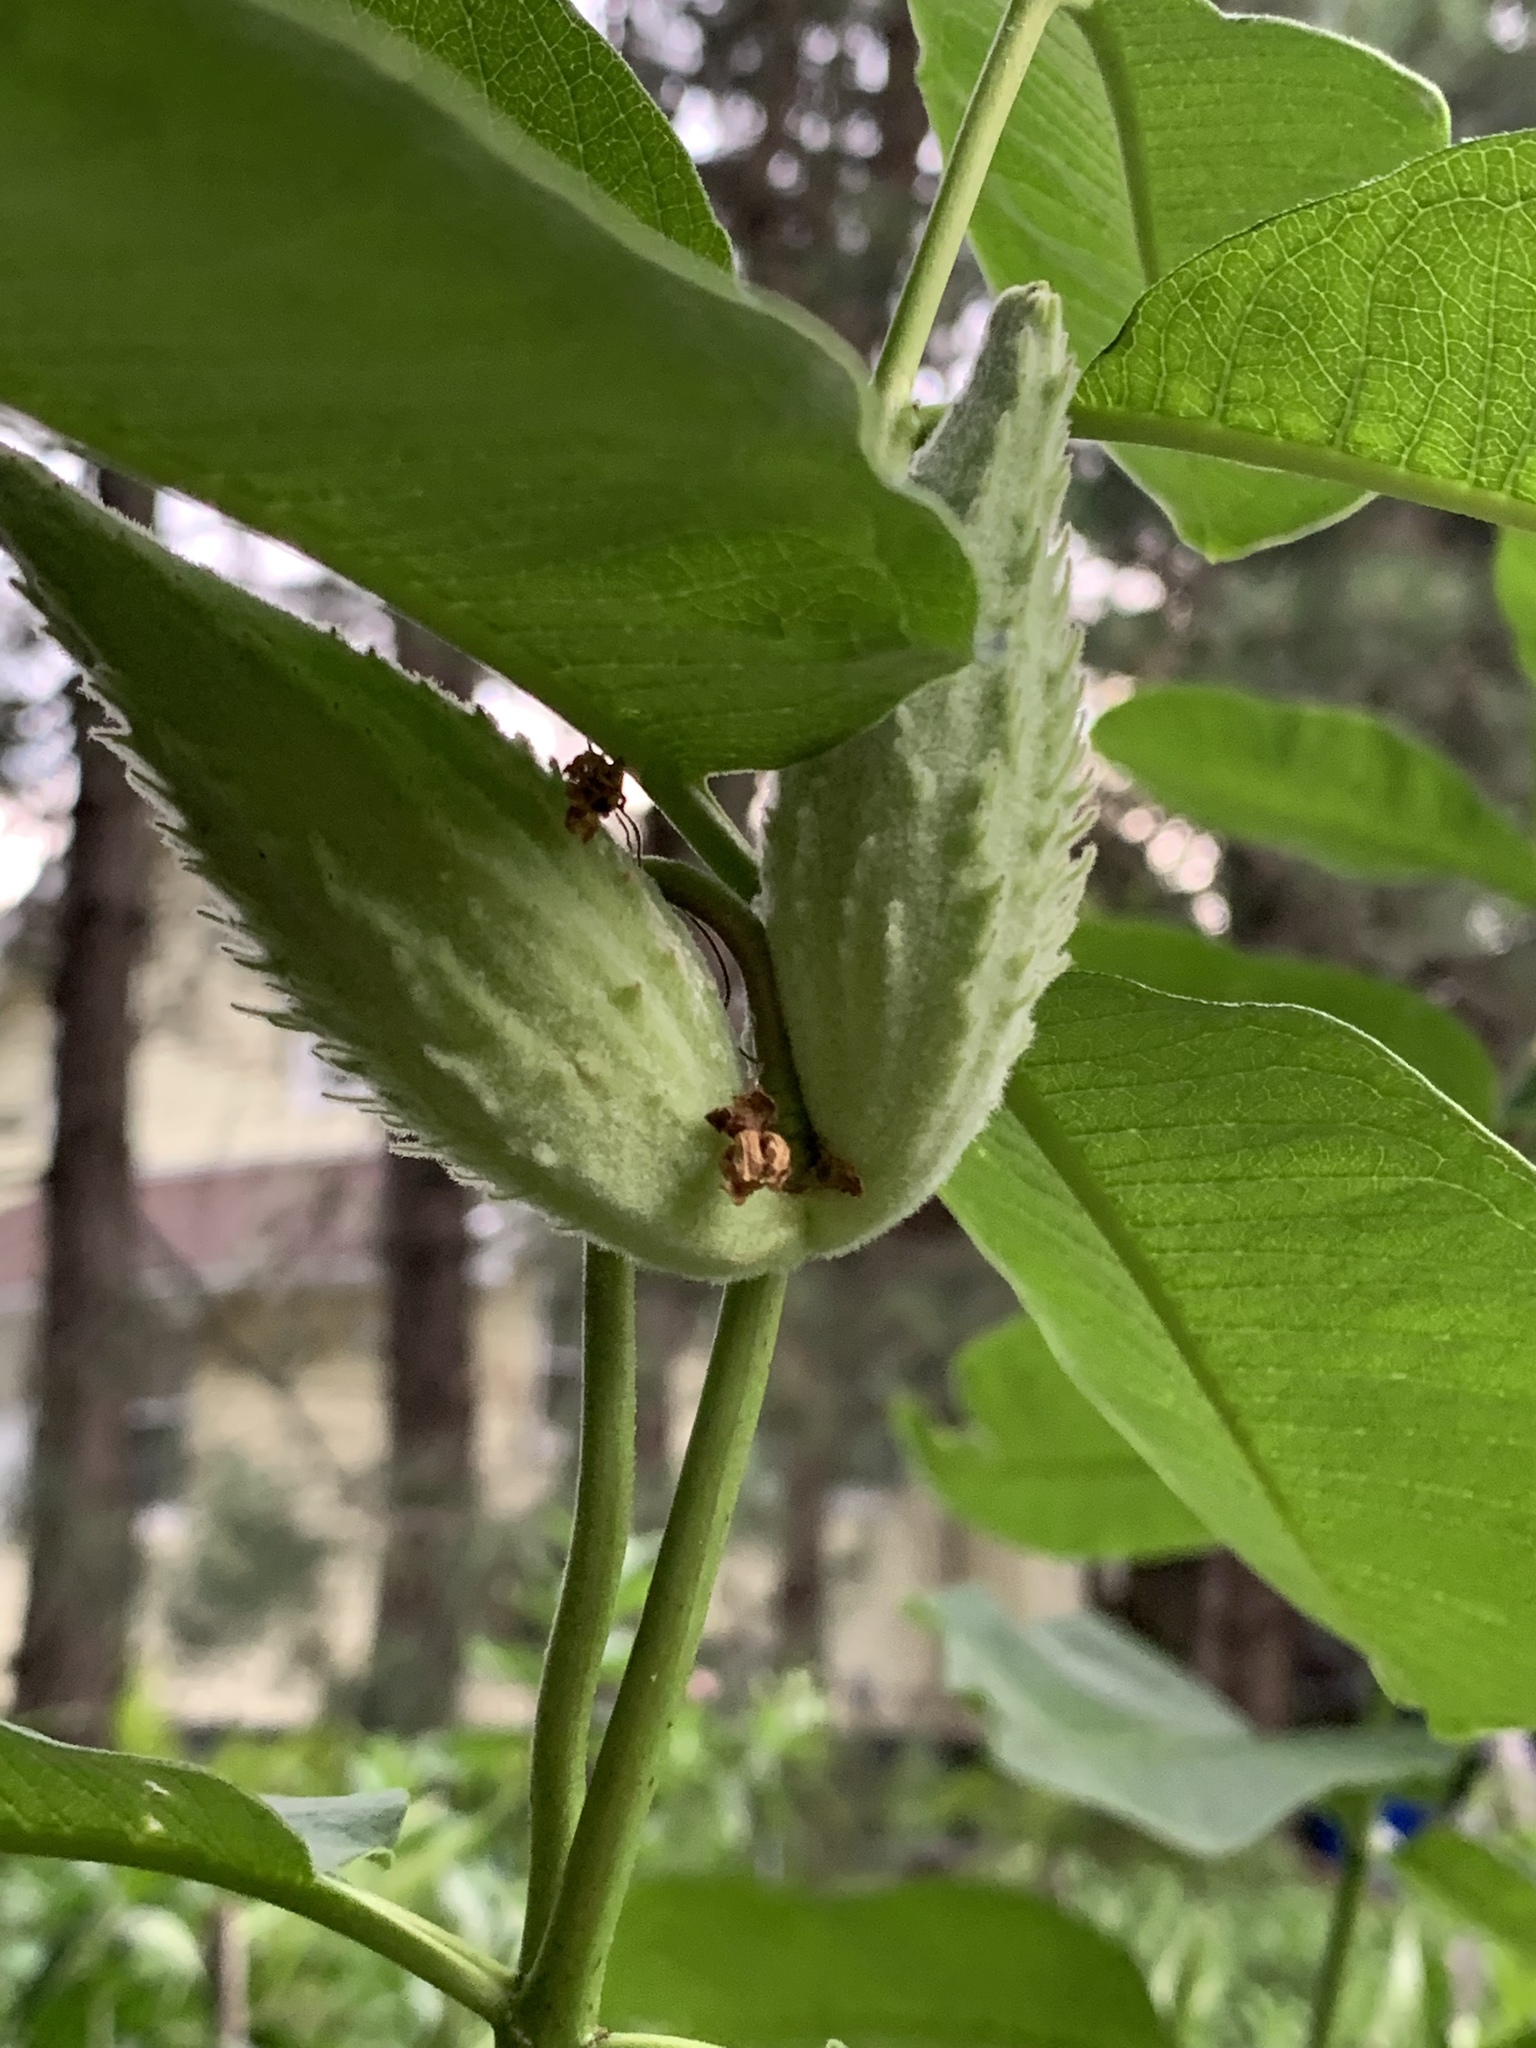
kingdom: Plantae
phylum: Tracheophyta
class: Magnoliopsida
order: Gentianales
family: Apocynaceae
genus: Asclepias
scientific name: Asclepias syriaca
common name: Common milkweed
